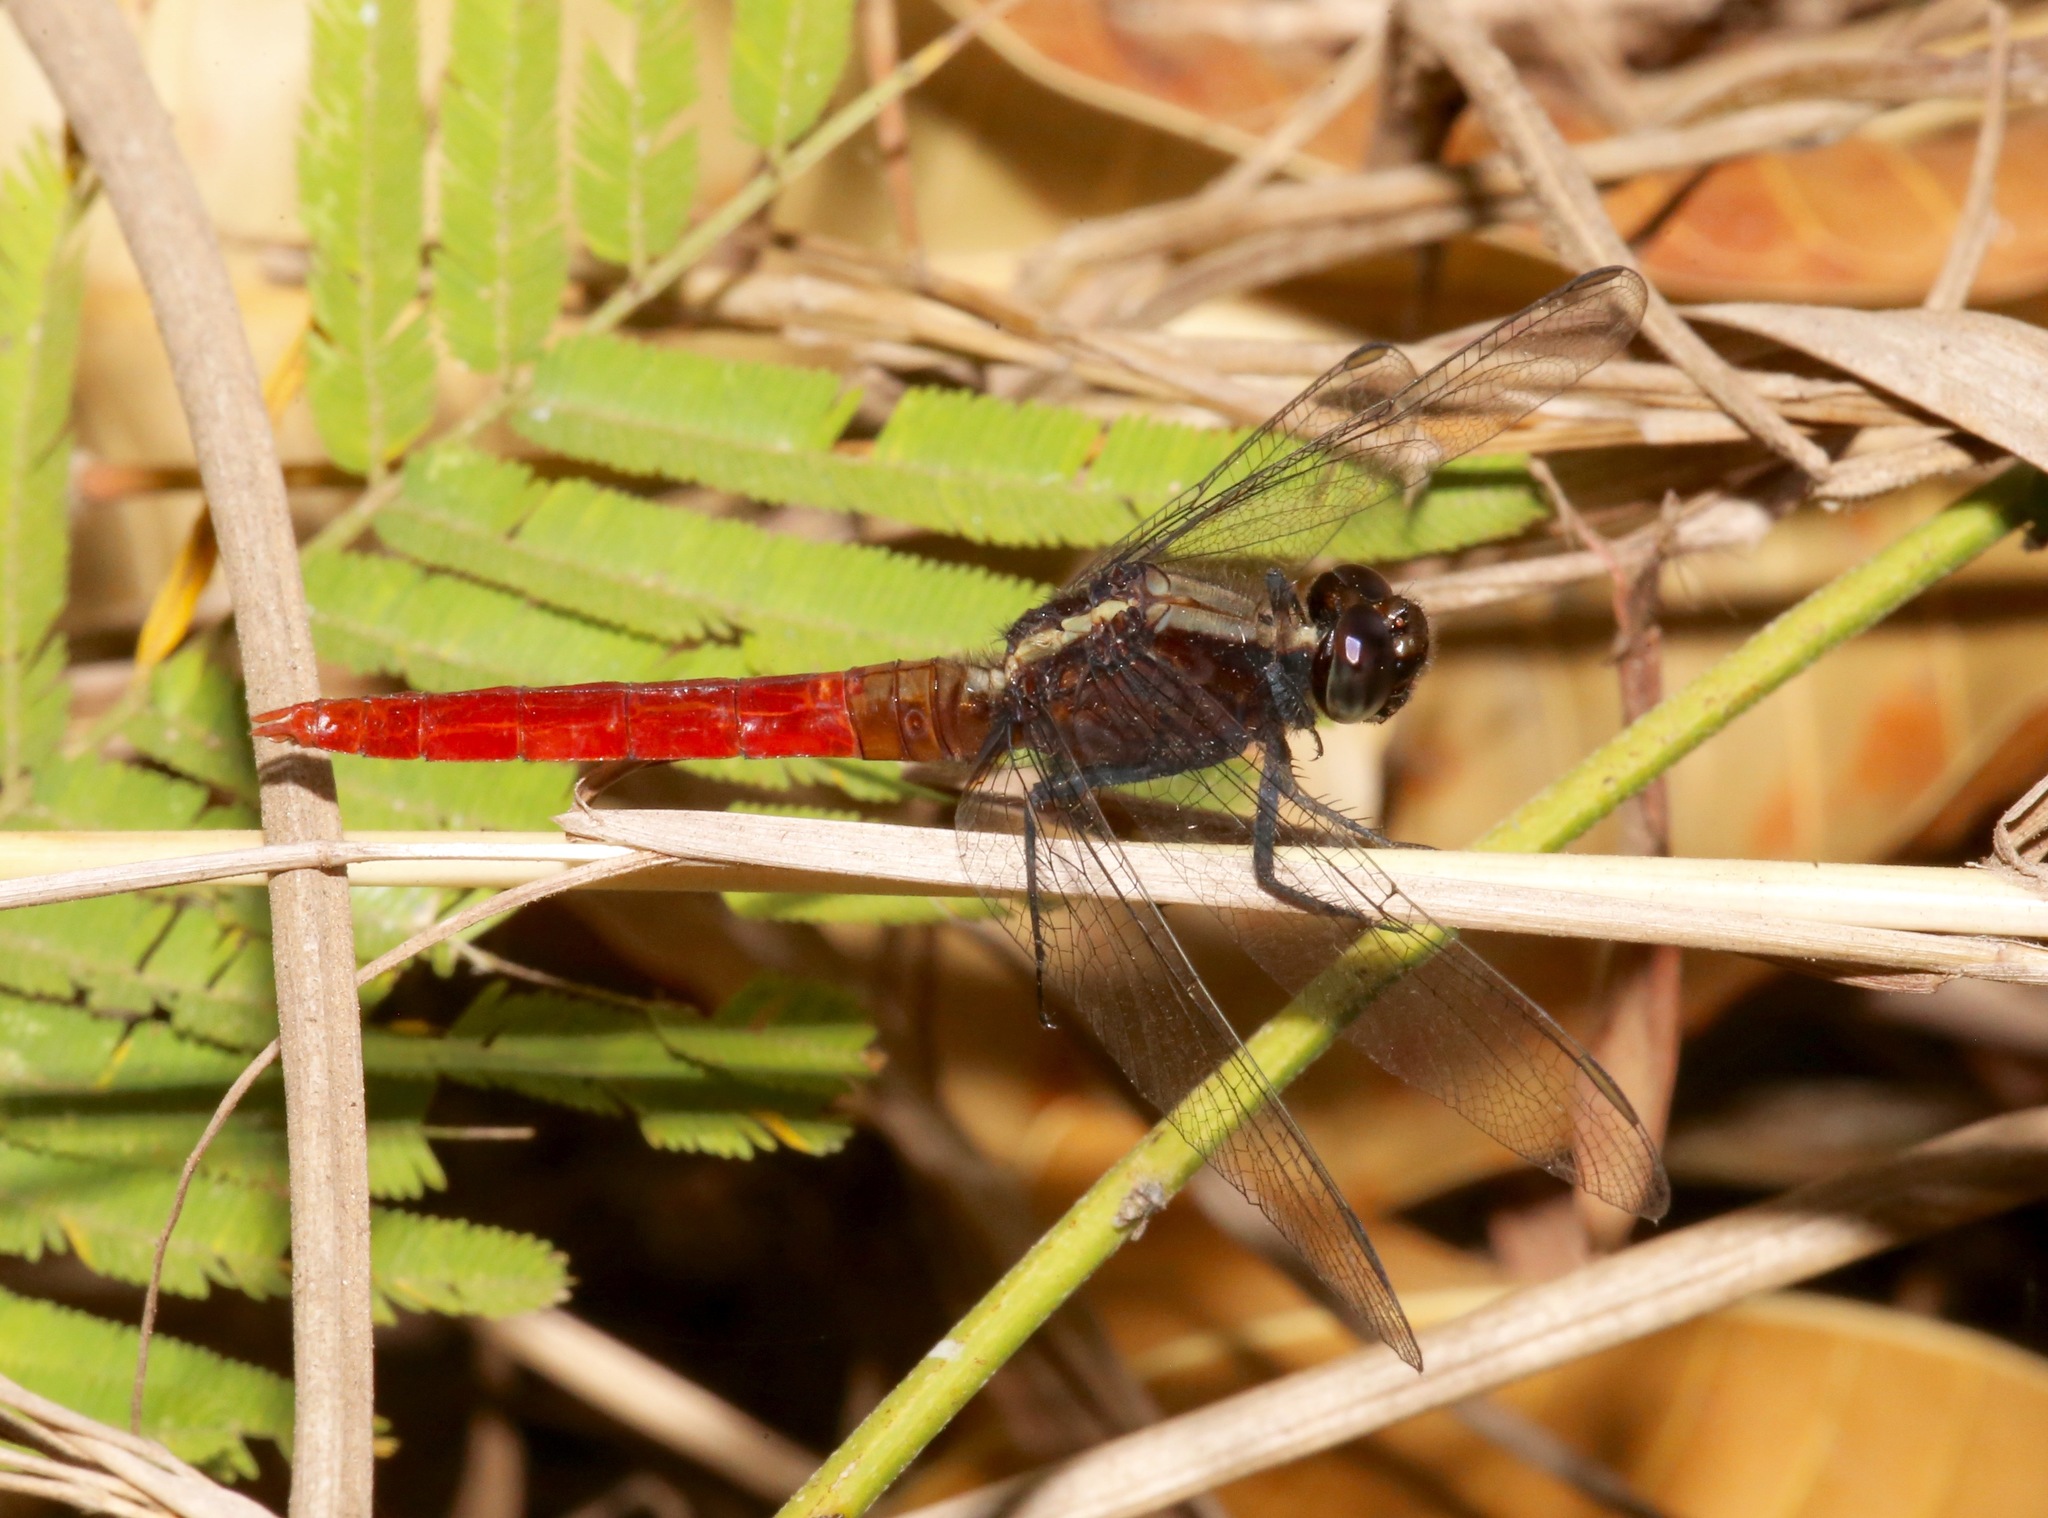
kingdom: Animalia
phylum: Arthropoda
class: Insecta
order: Odonata
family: Libellulidae
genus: Erythemis
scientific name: Erythemis peruviana
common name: Flame-tailed pondhawk
